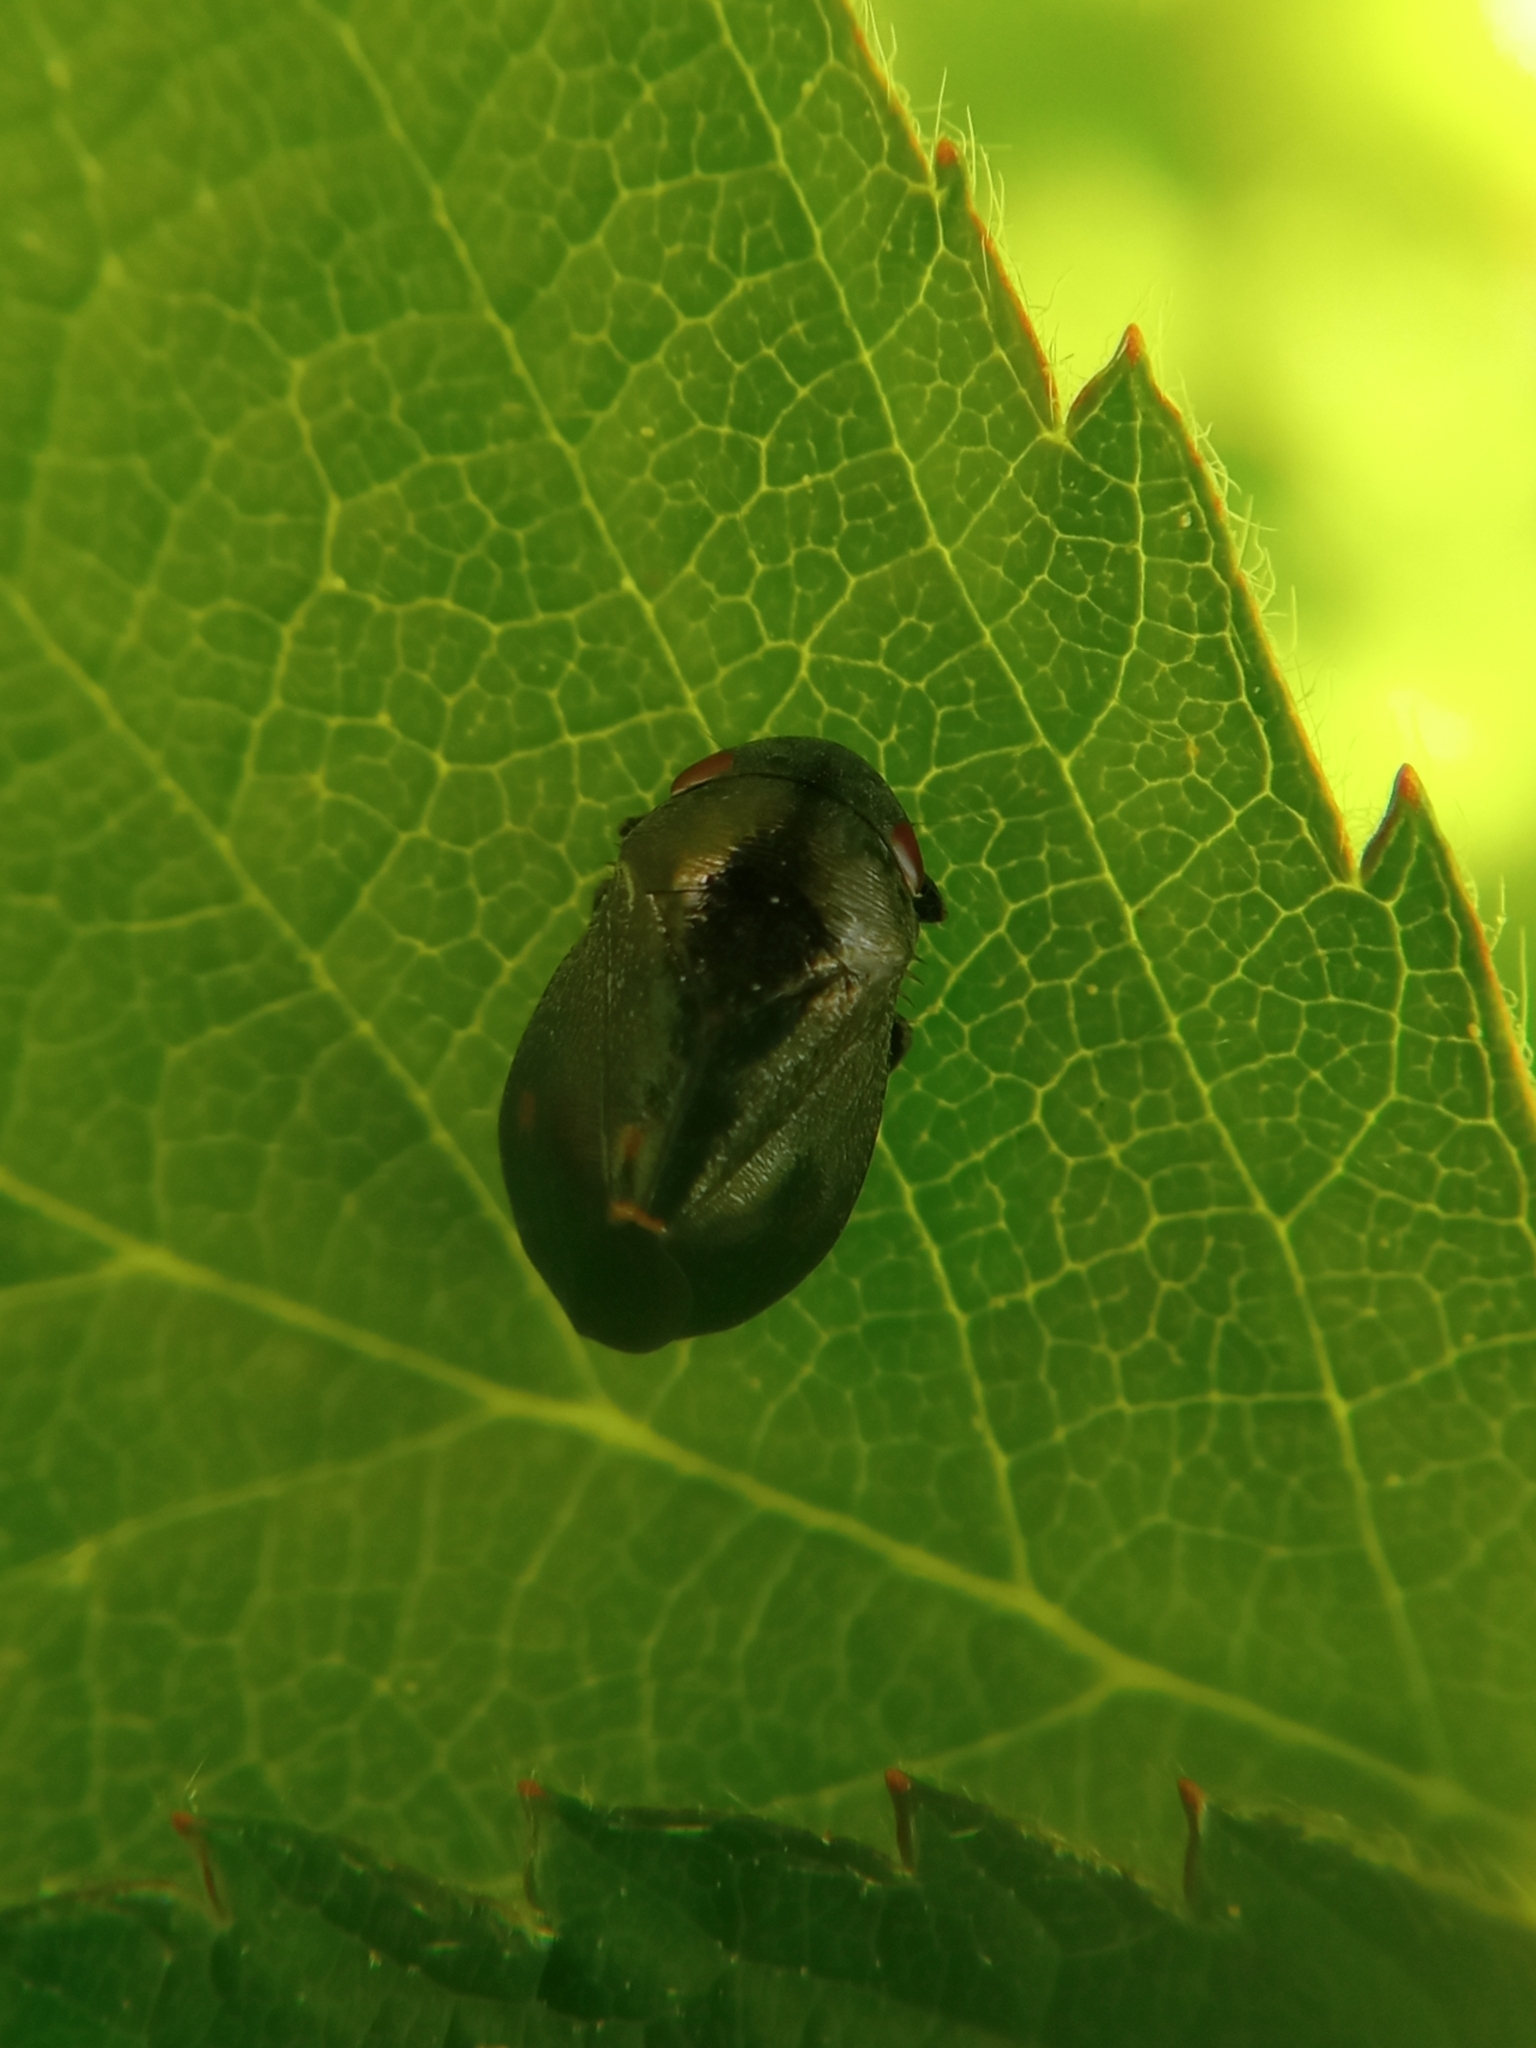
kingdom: Animalia
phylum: Arthropoda
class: Insecta
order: Hemiptera
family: Cicadellidae
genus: Penthimia
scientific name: Penthimia nigra
